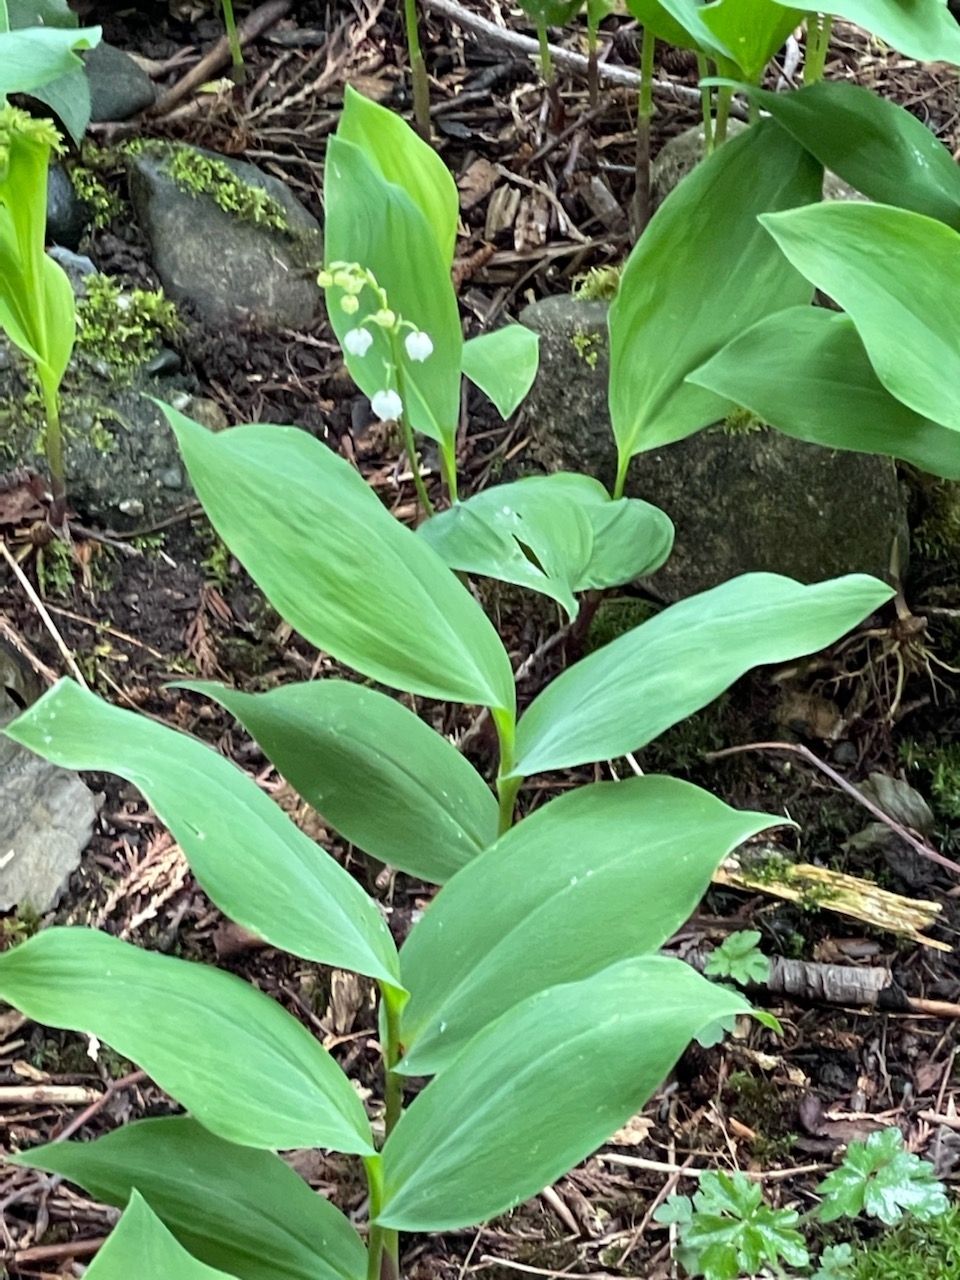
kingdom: Plantae
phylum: Tracheophyta
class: Liliopsida
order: Asparagales
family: Asparagaceae
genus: Convallaria
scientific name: Convallaria majalis
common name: Lily-of-the-valley
